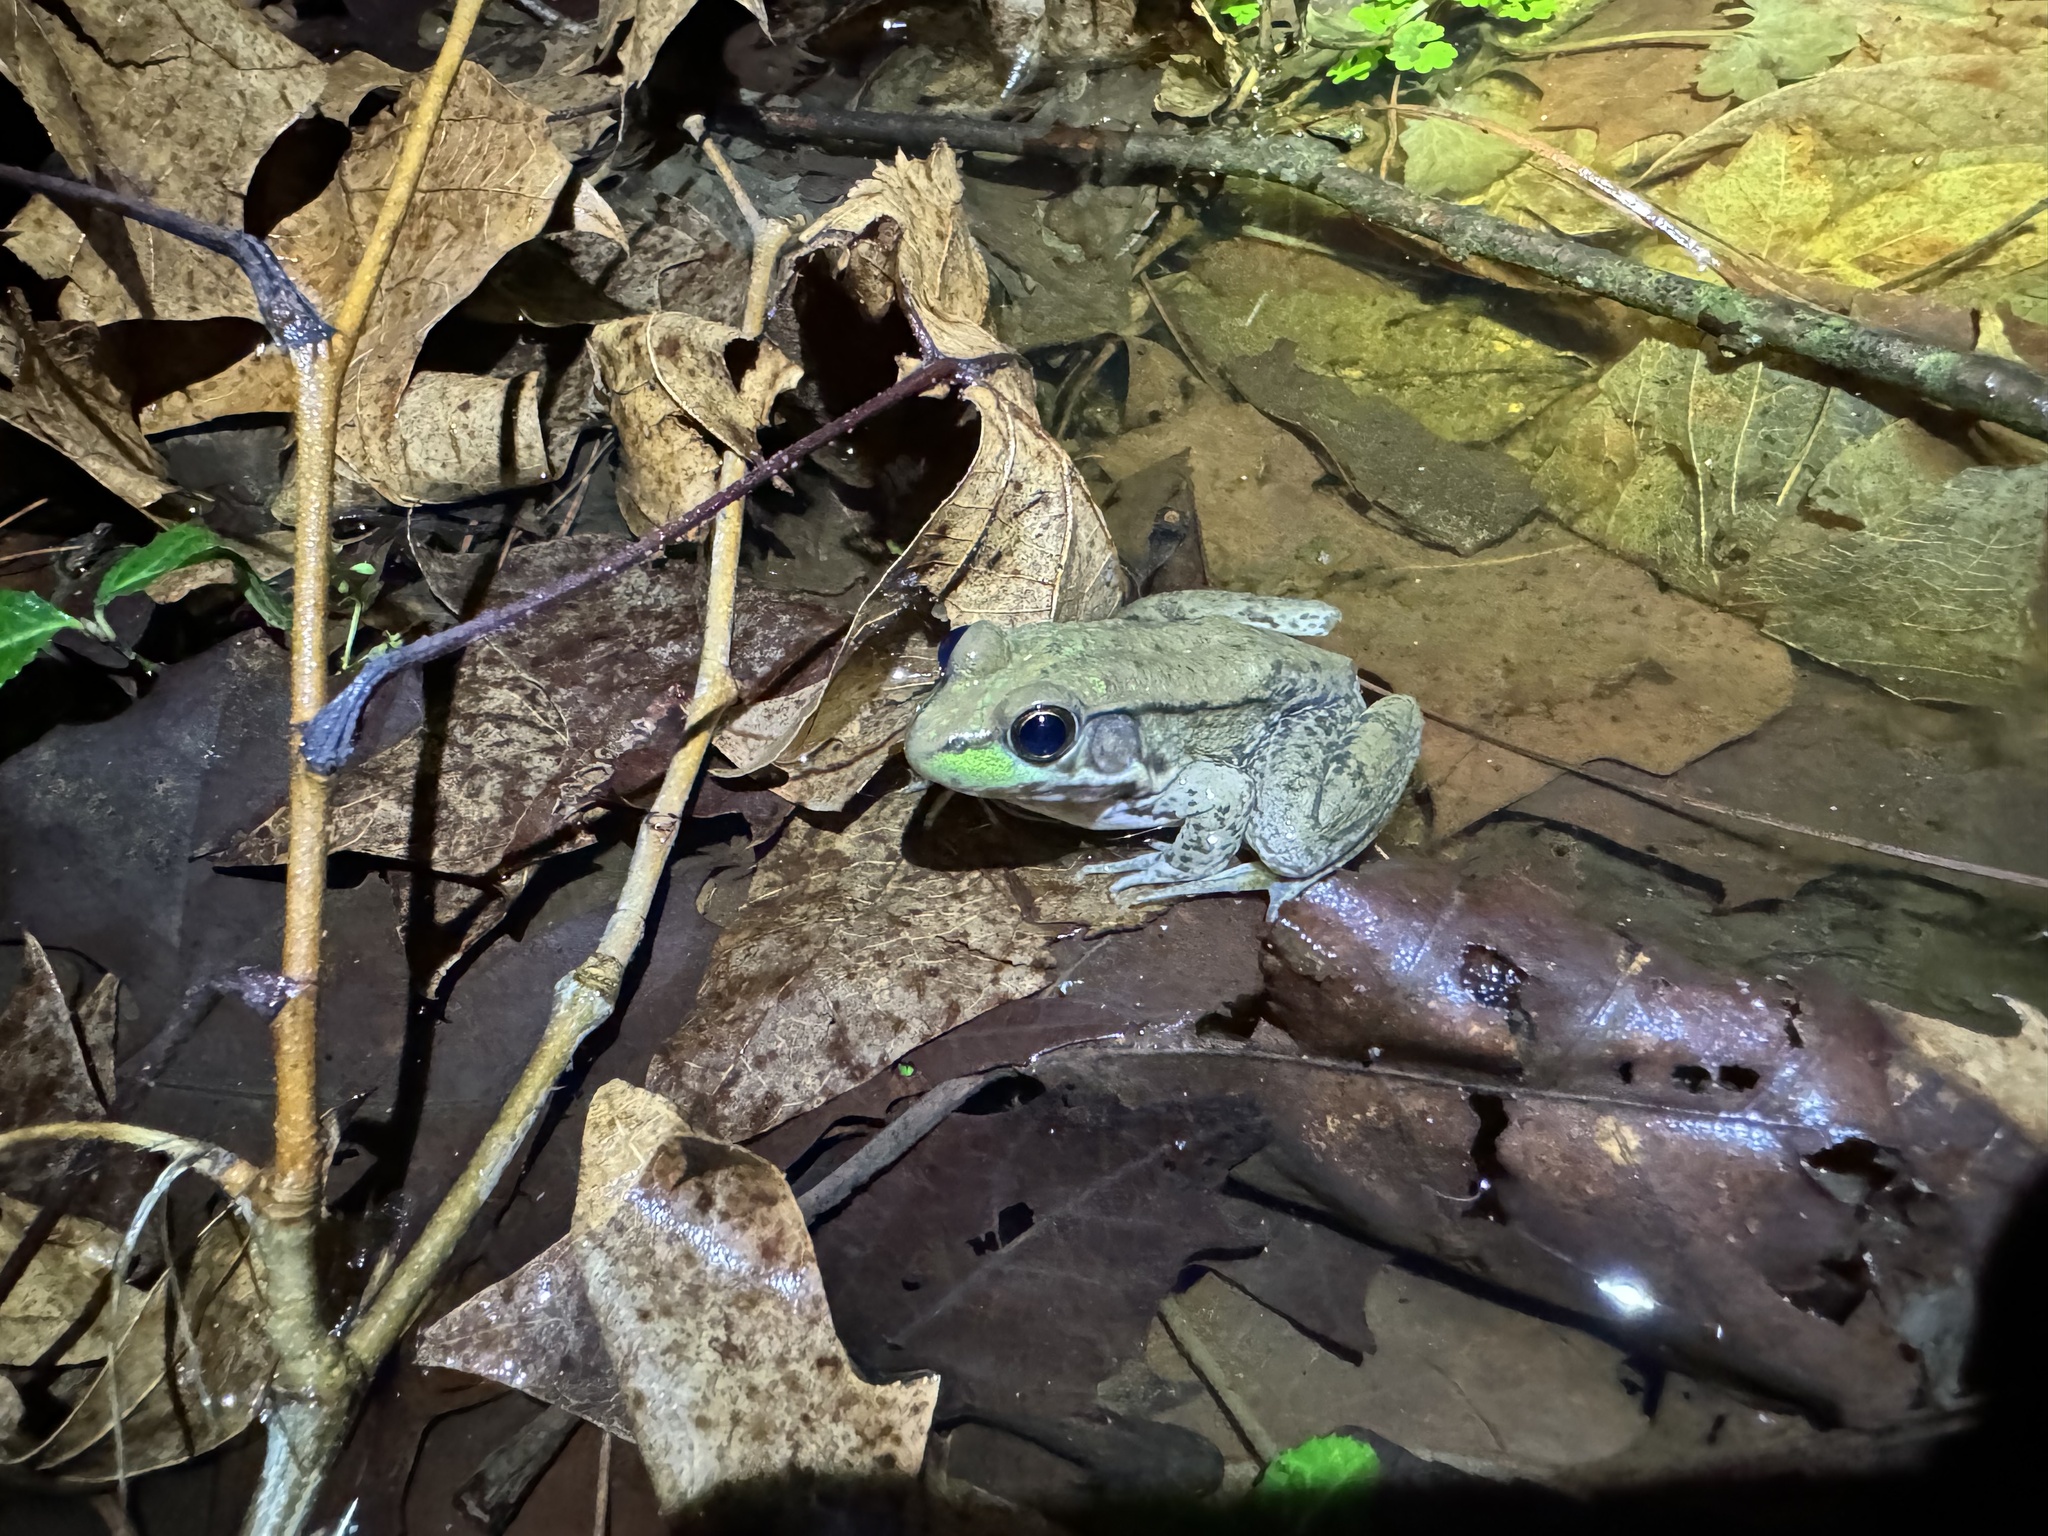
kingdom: Animalia
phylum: Chordata
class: Amphibia
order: Anura
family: Ranidae
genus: Lithobates
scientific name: Lithobates clamitans
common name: Green frog
